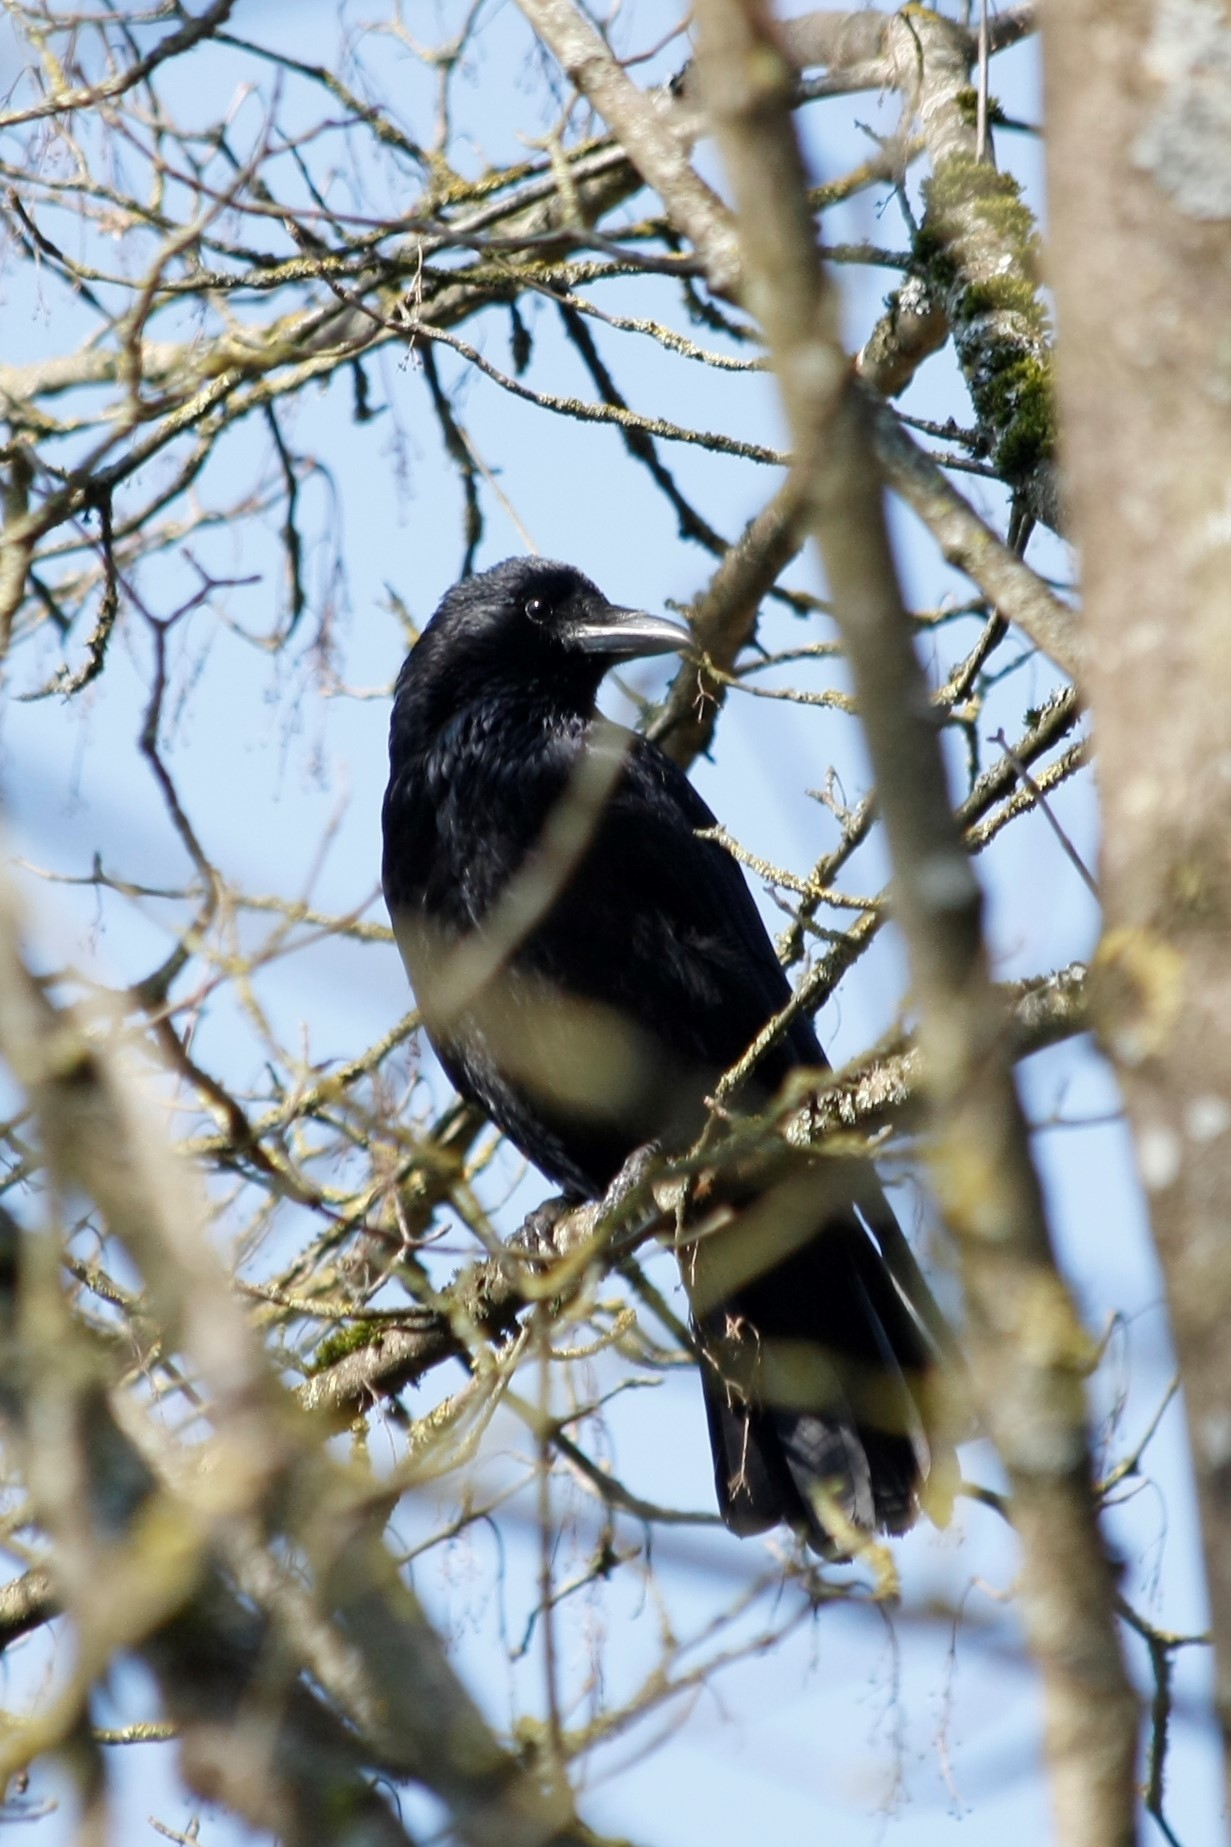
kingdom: Animalia
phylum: Chordata
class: Aves
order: Passeriformes
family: Corvidae
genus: Corvus
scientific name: Corvus corone
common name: Carrion crow
